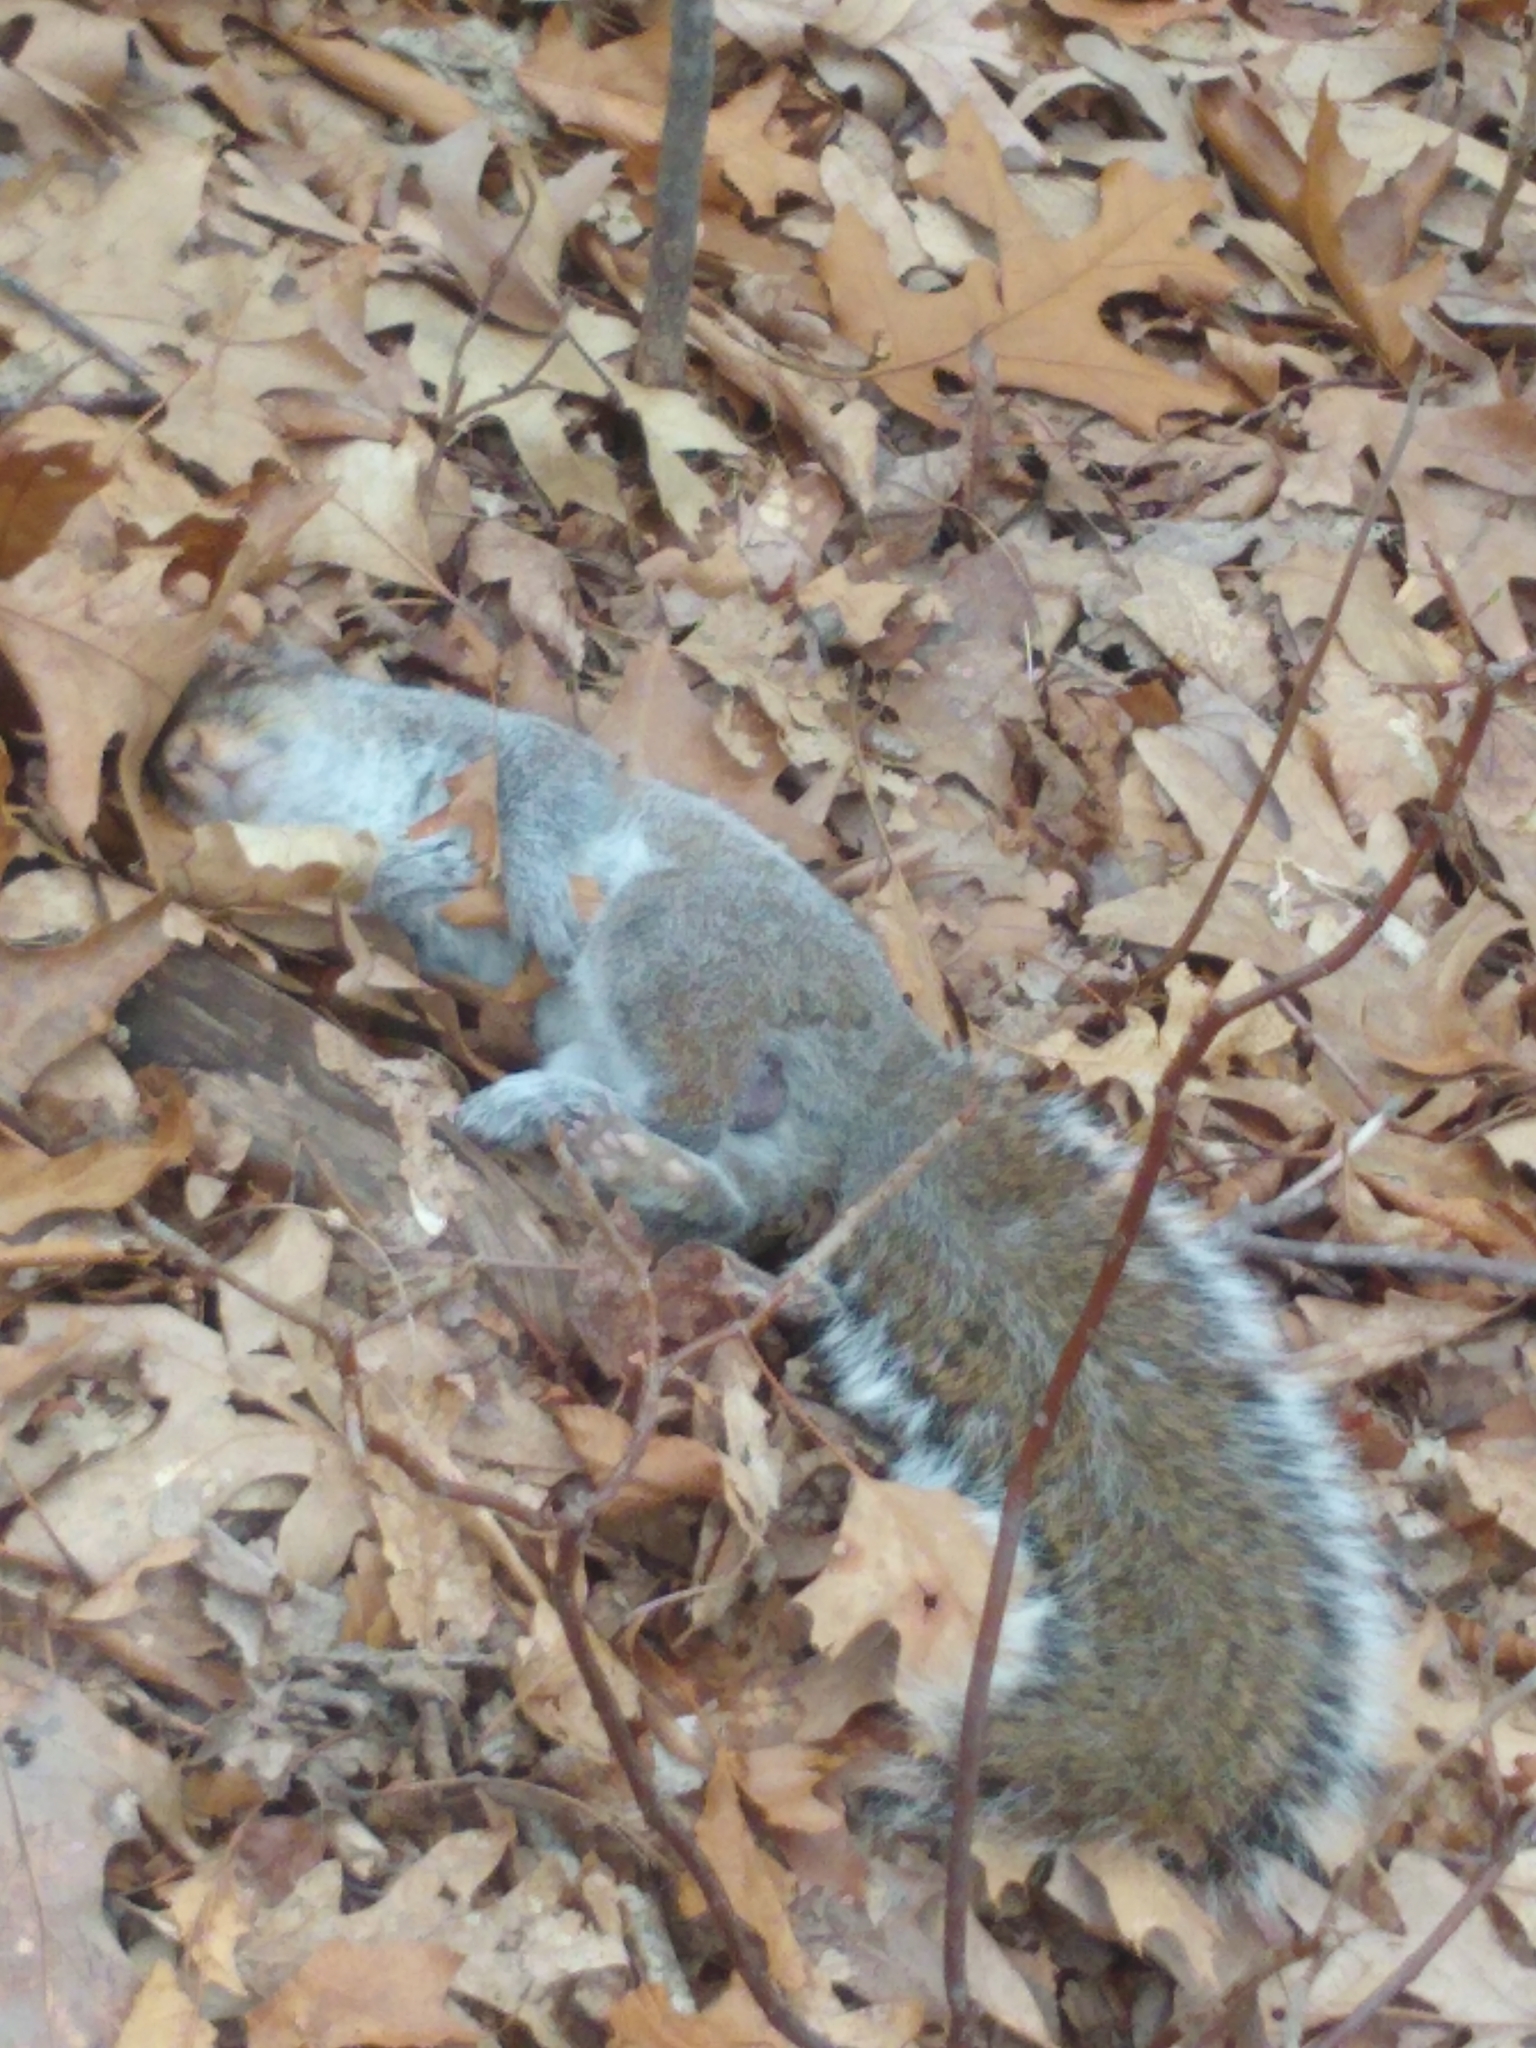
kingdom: Animalia
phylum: Chordata
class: Mammalia
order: Rodentia
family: Sciuridae
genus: Sciurus
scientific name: Sciurus carolinensis
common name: Eastern gray squirrel
